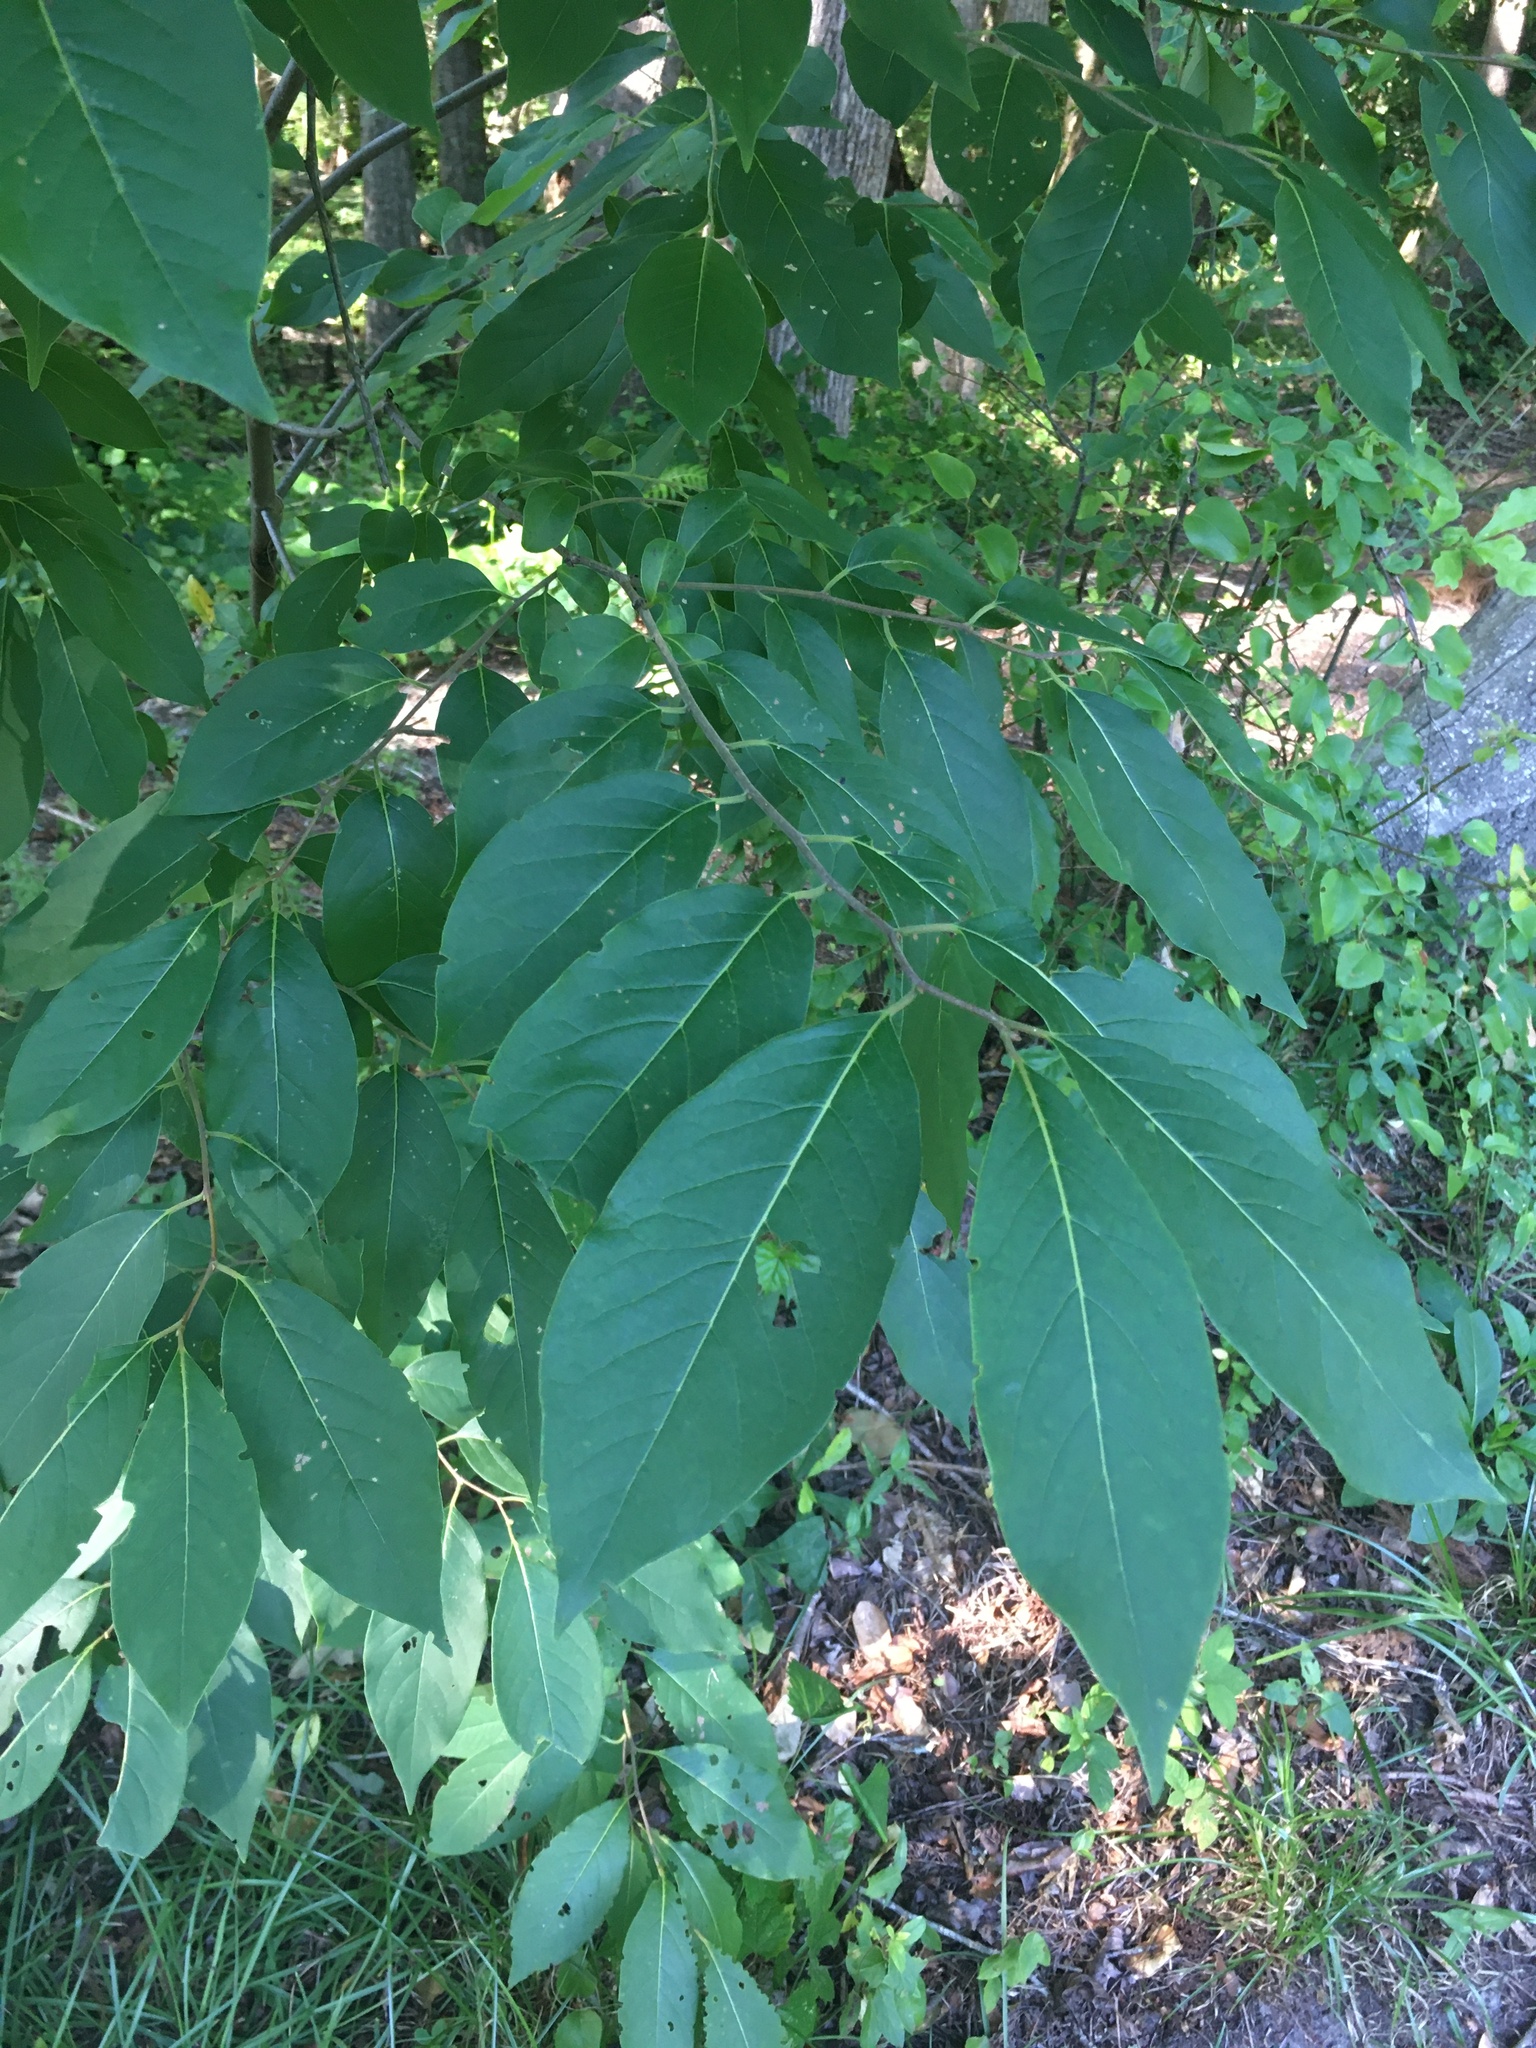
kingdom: Plantae
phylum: Tracheophyta
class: Magnoliopsida
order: Ericales
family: Ebenaceae
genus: Diospyros
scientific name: Diospyros virginiana
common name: Persimmon
